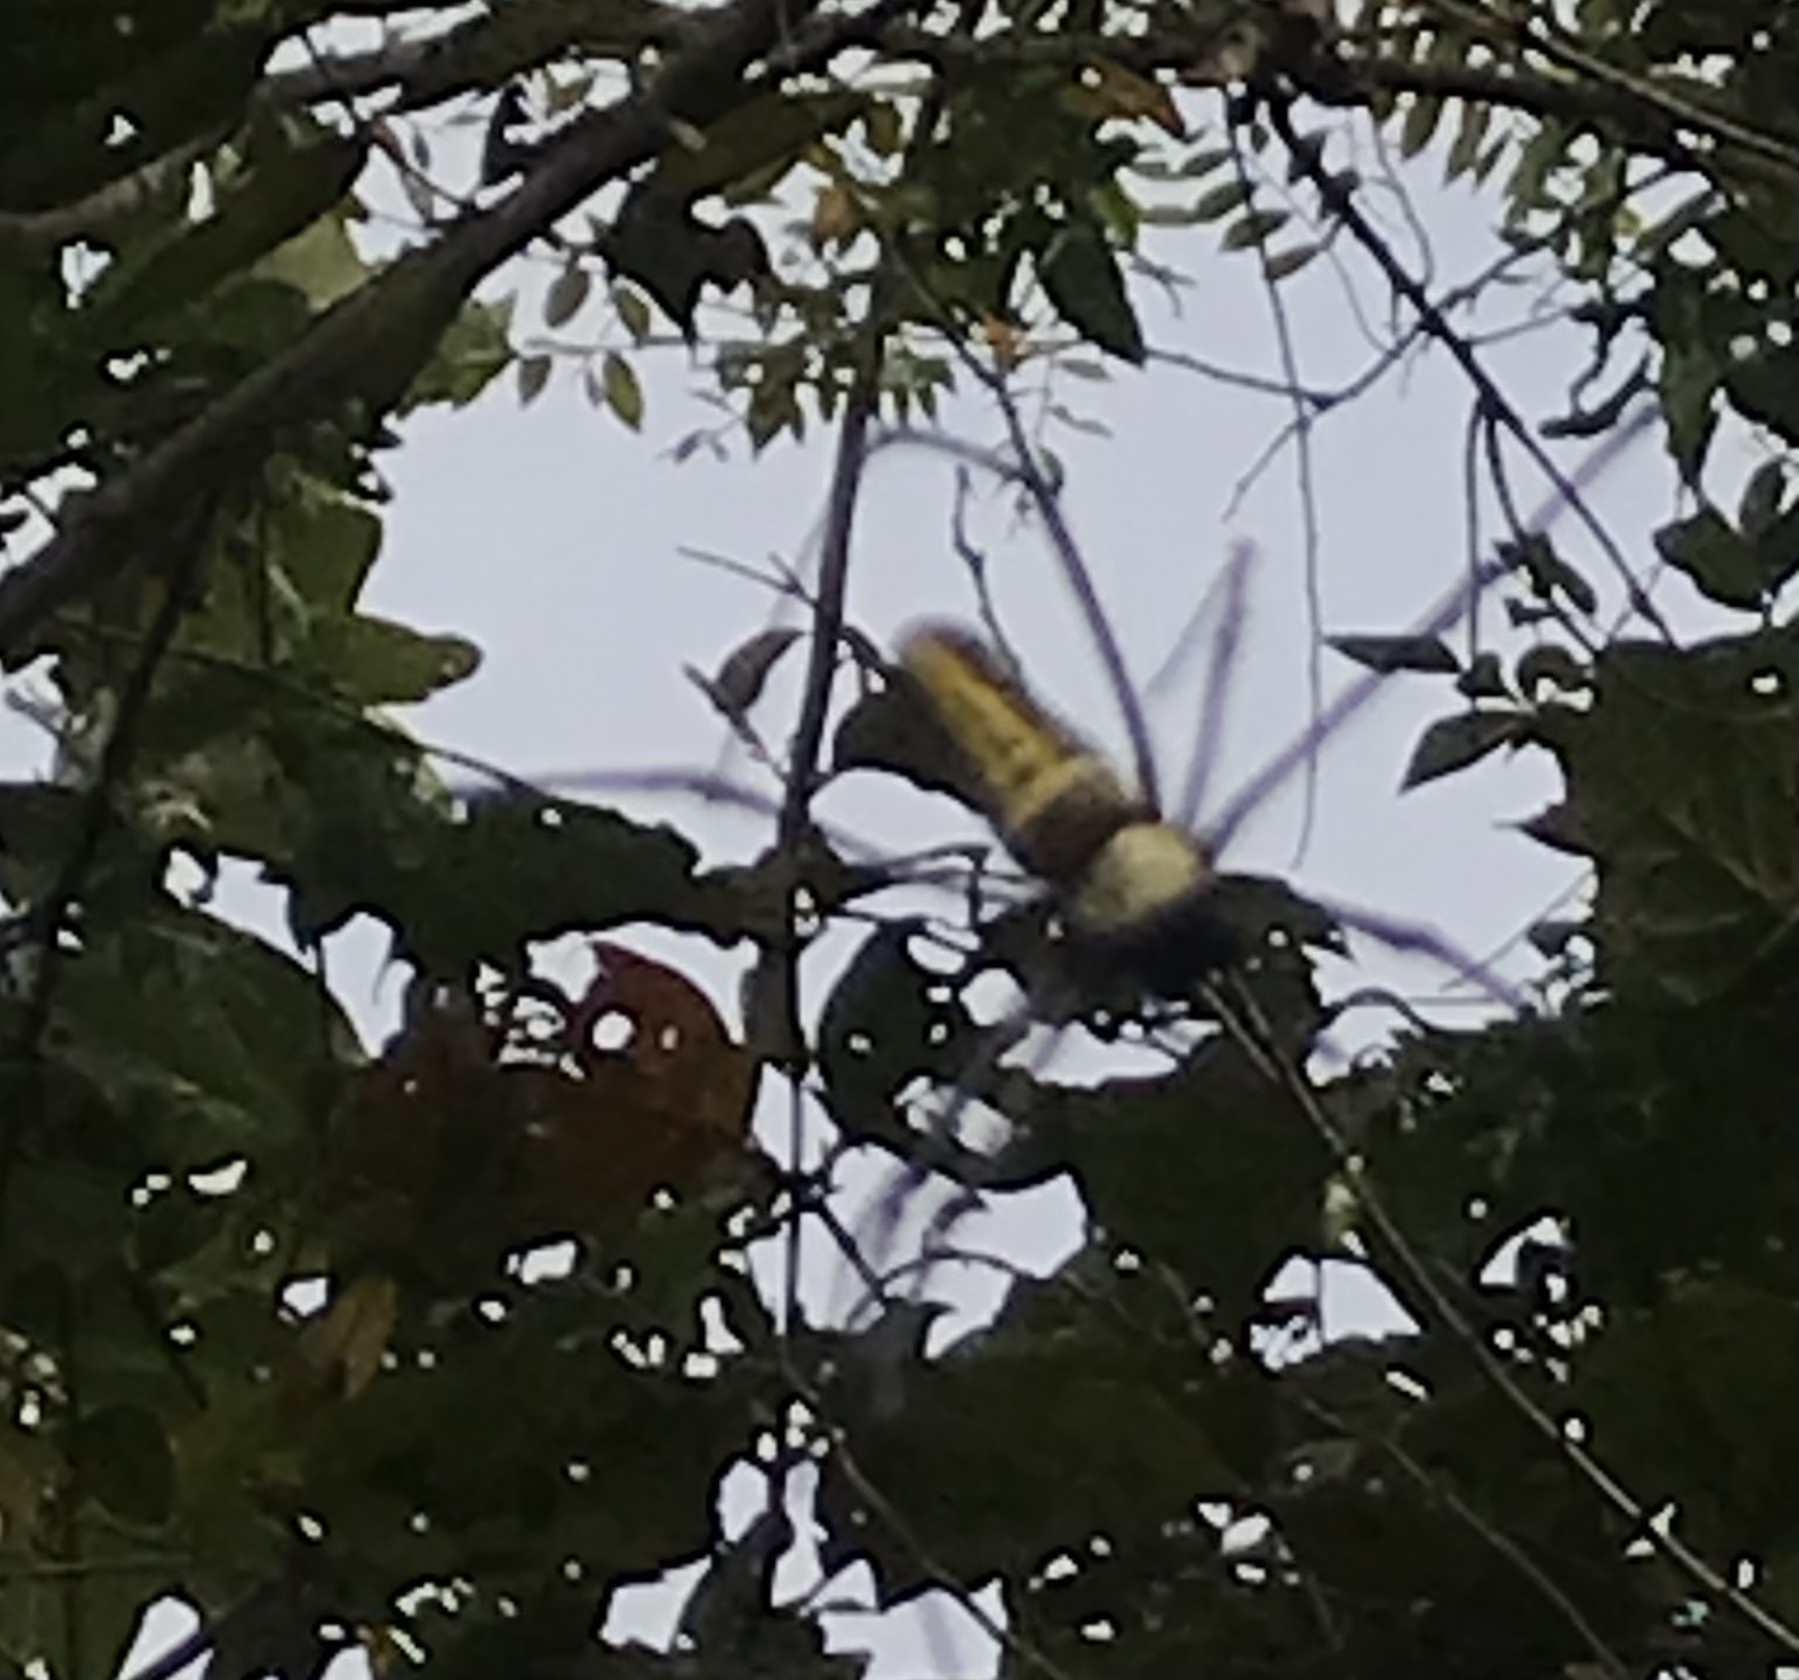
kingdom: Animalia
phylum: Arthropoda
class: Arachnida
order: Araneae
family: Araneidae
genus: Nephila
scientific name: Nephila pilipes
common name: Giant golden orb weaver
